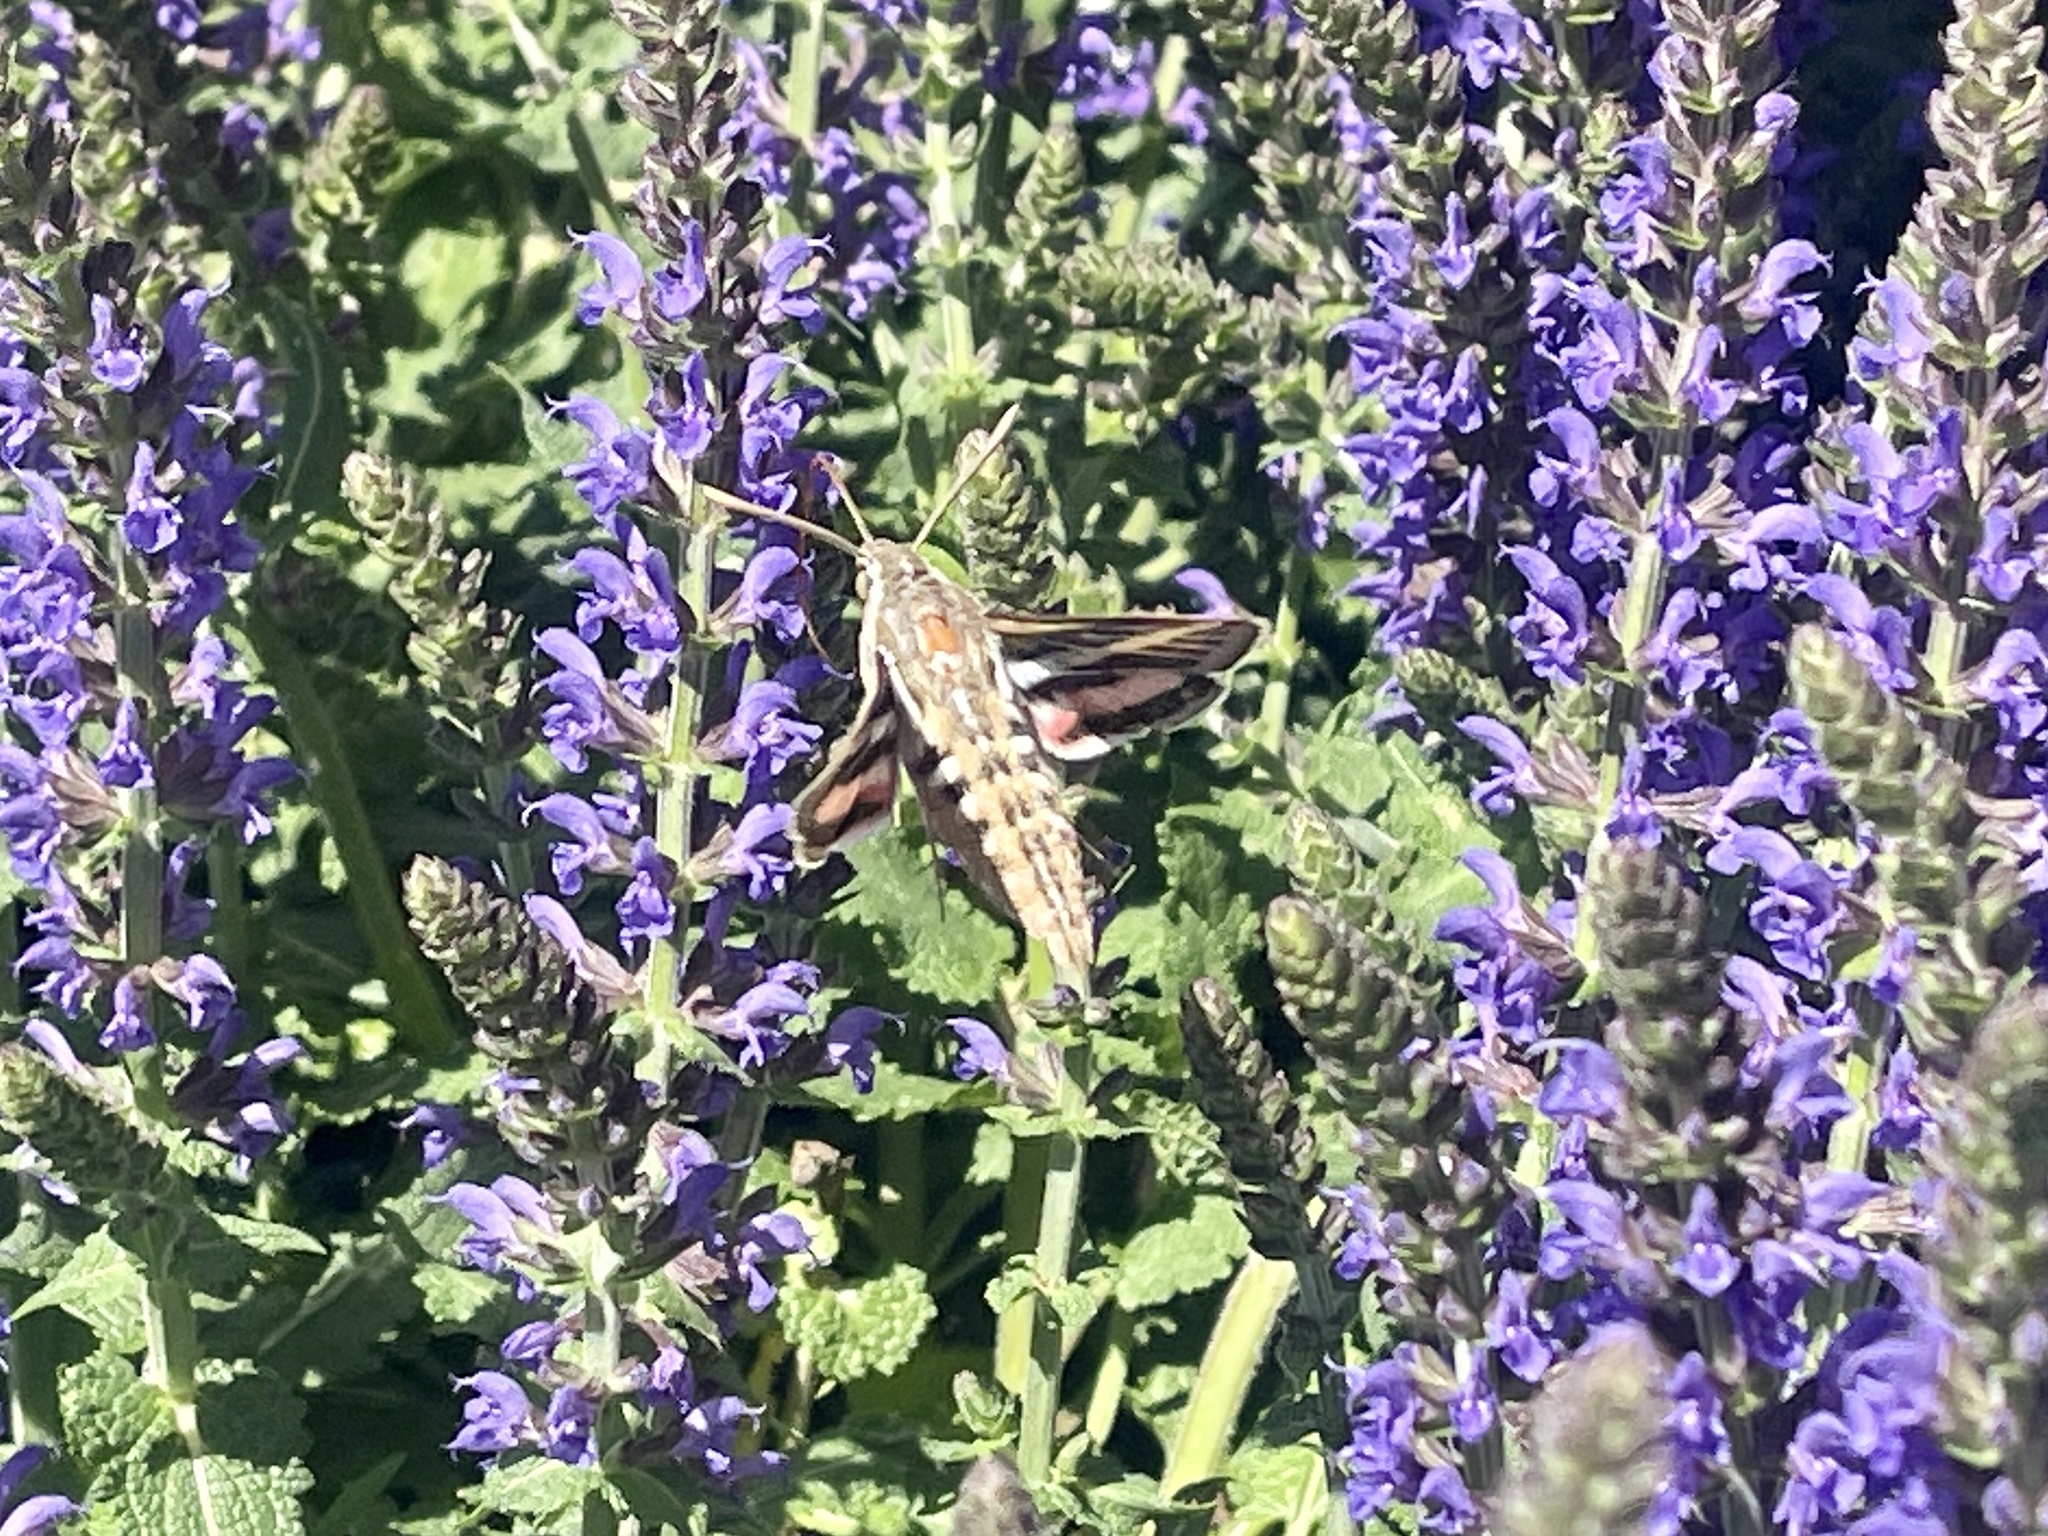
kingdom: Animalia
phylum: Arthropoda
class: Insecta
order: Lepidoptera
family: Sphingidae
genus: Hyles
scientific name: Hyles lineata
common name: White-lined sphinx
